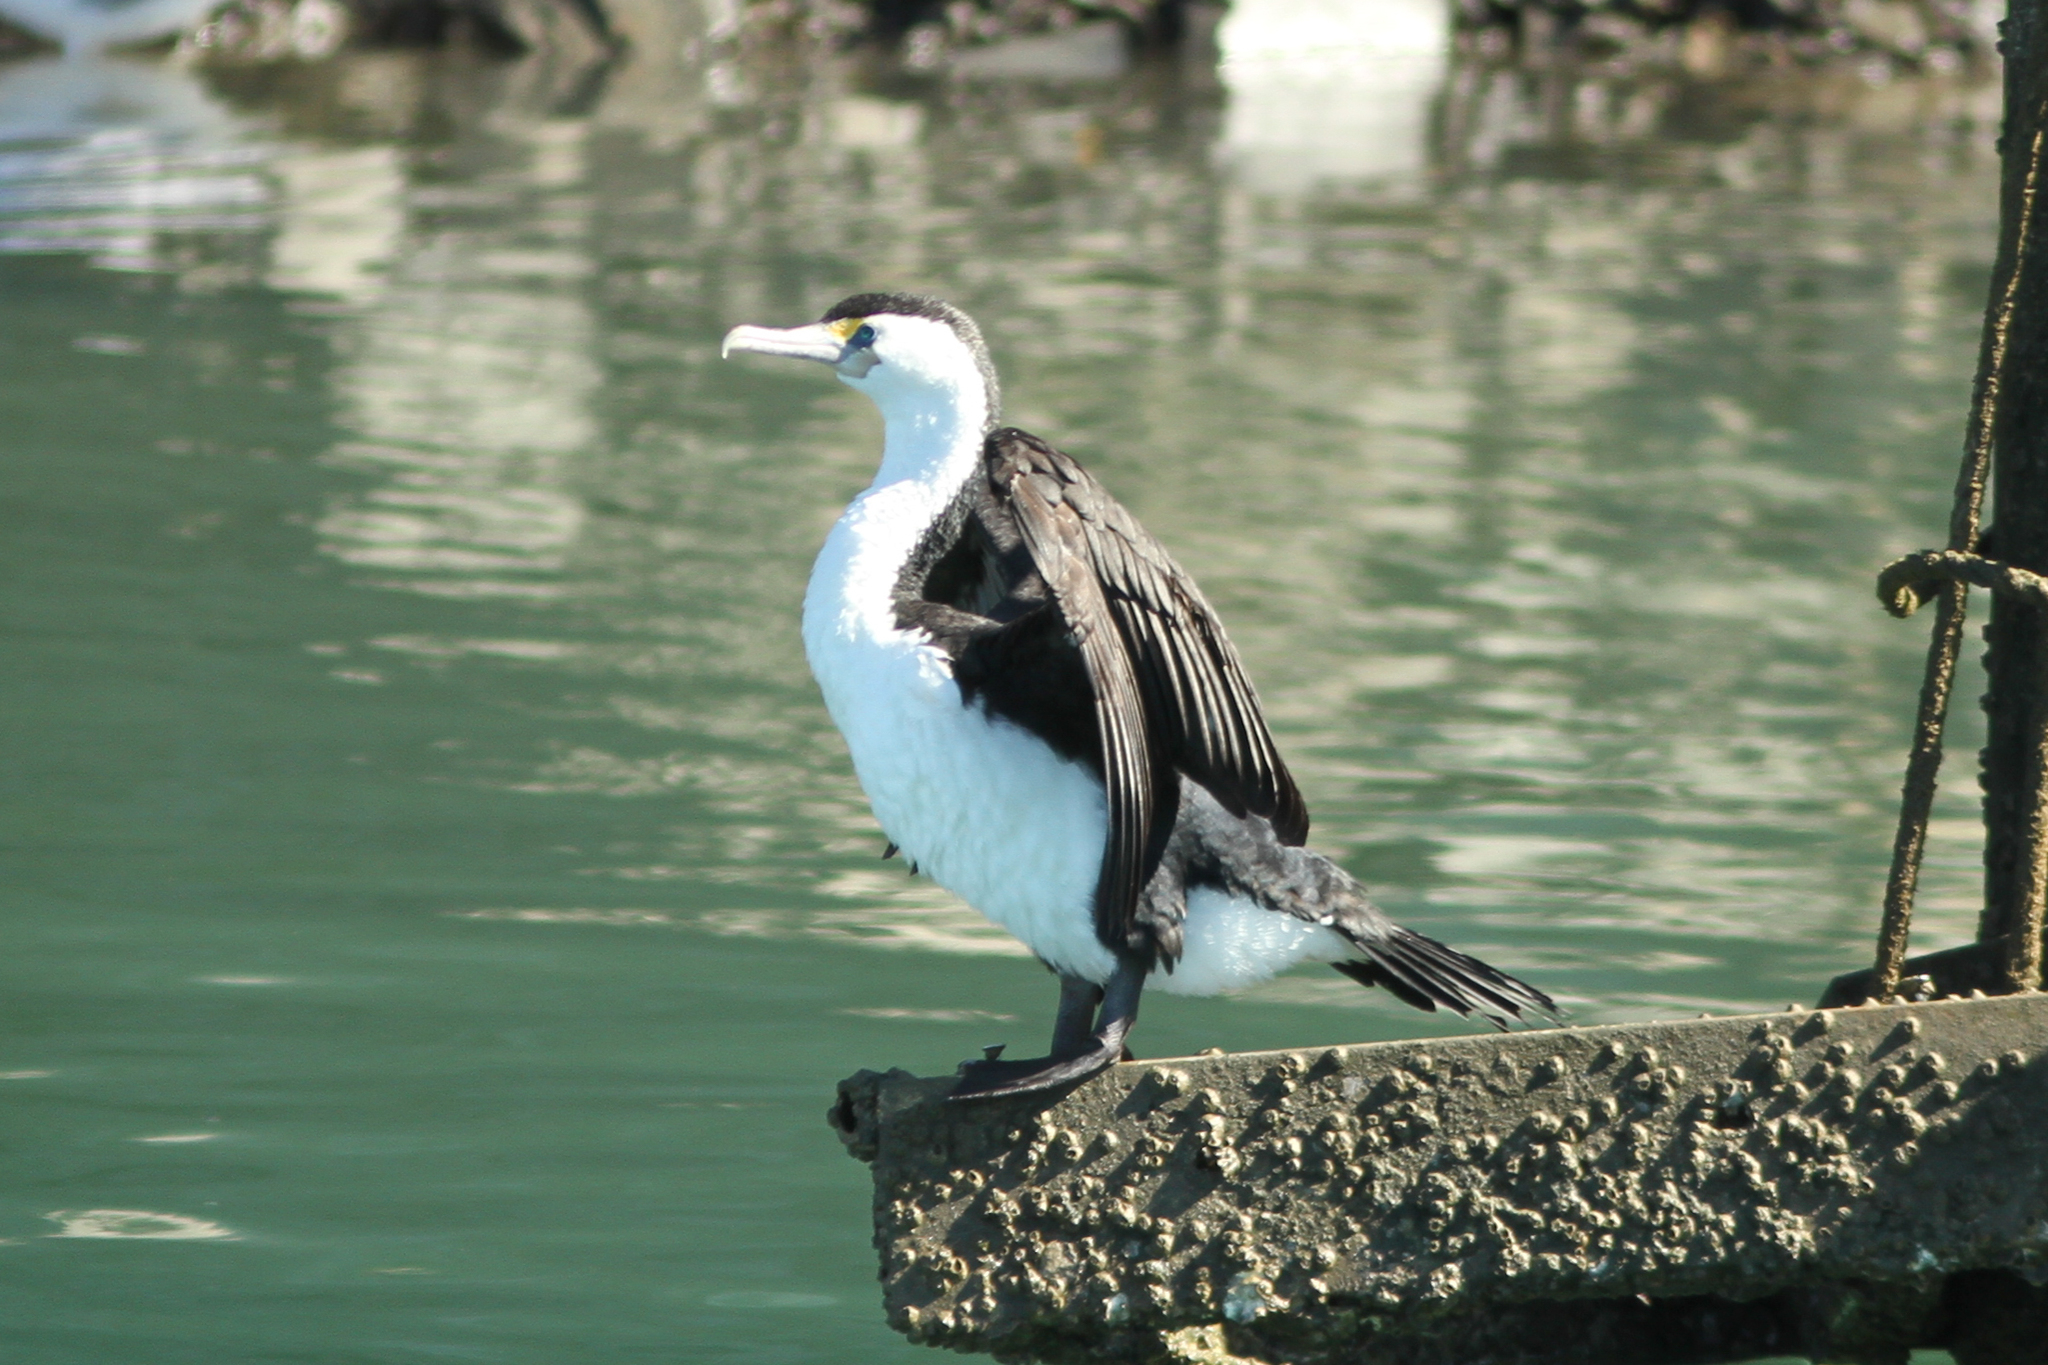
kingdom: Animalia
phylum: Chordata
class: Aves
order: Suliformes
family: Phalacrocoracidae
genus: Phalacrocorax
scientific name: Phalacrocorax varius
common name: Pied cormorant
